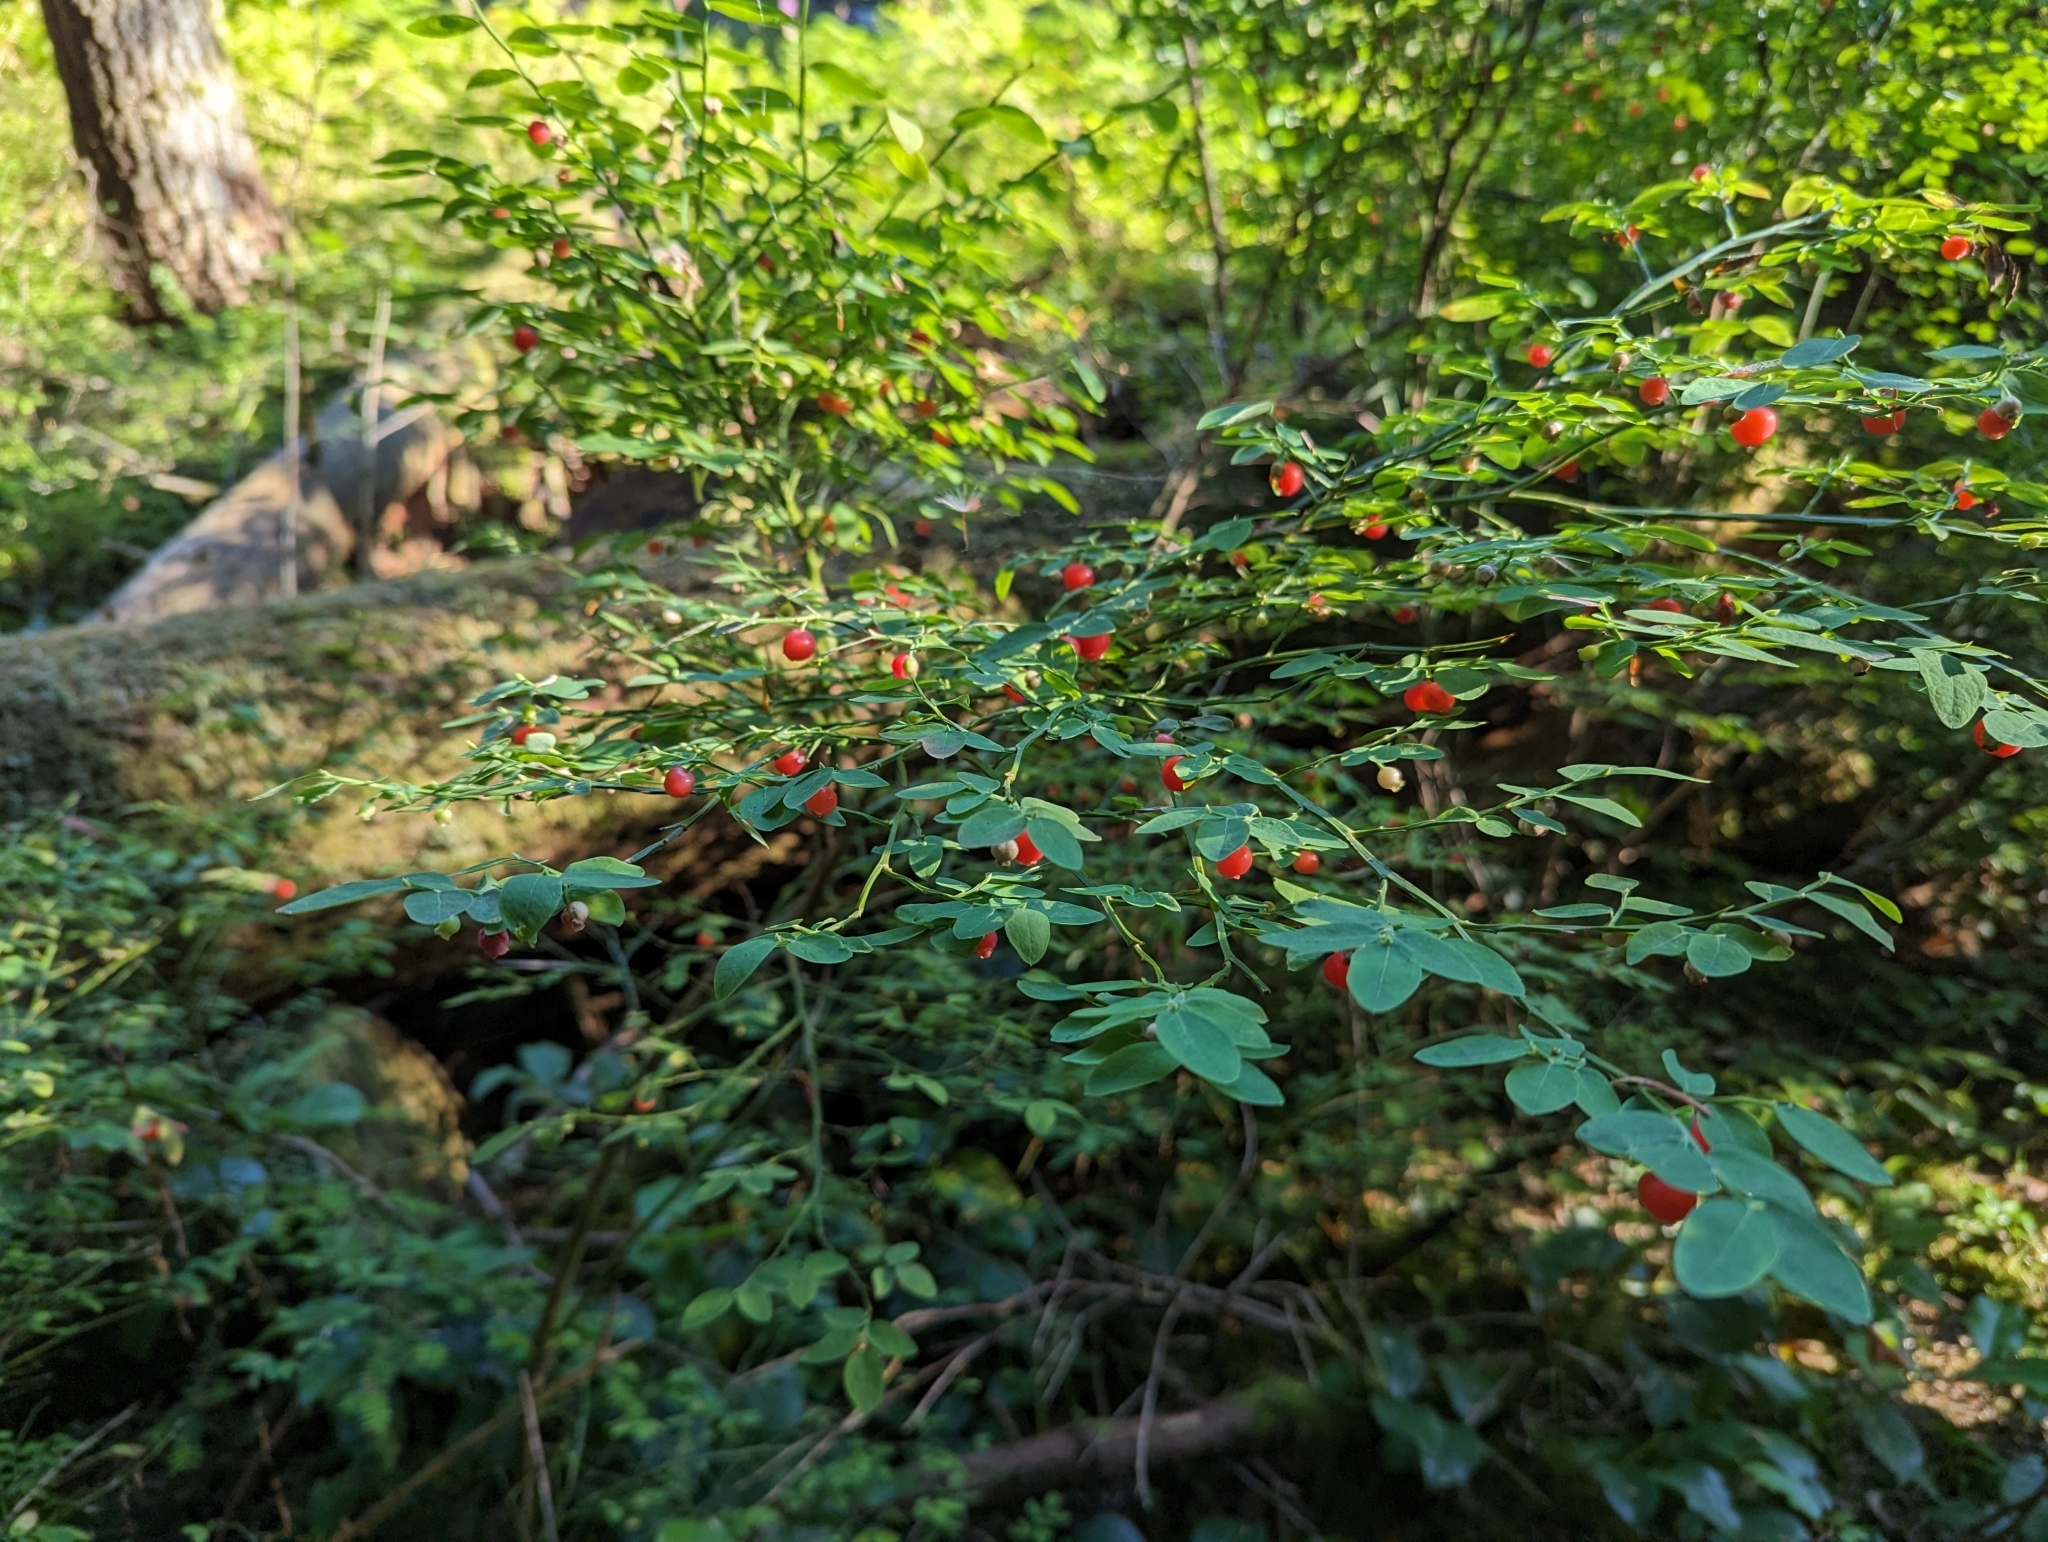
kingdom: Plantae
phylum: Tracheophyta
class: Magnoliopsida
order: Ericales
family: Ericaceae
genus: Vaccinium
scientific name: Vaccinium parvifolium
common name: Red-huckleberry
